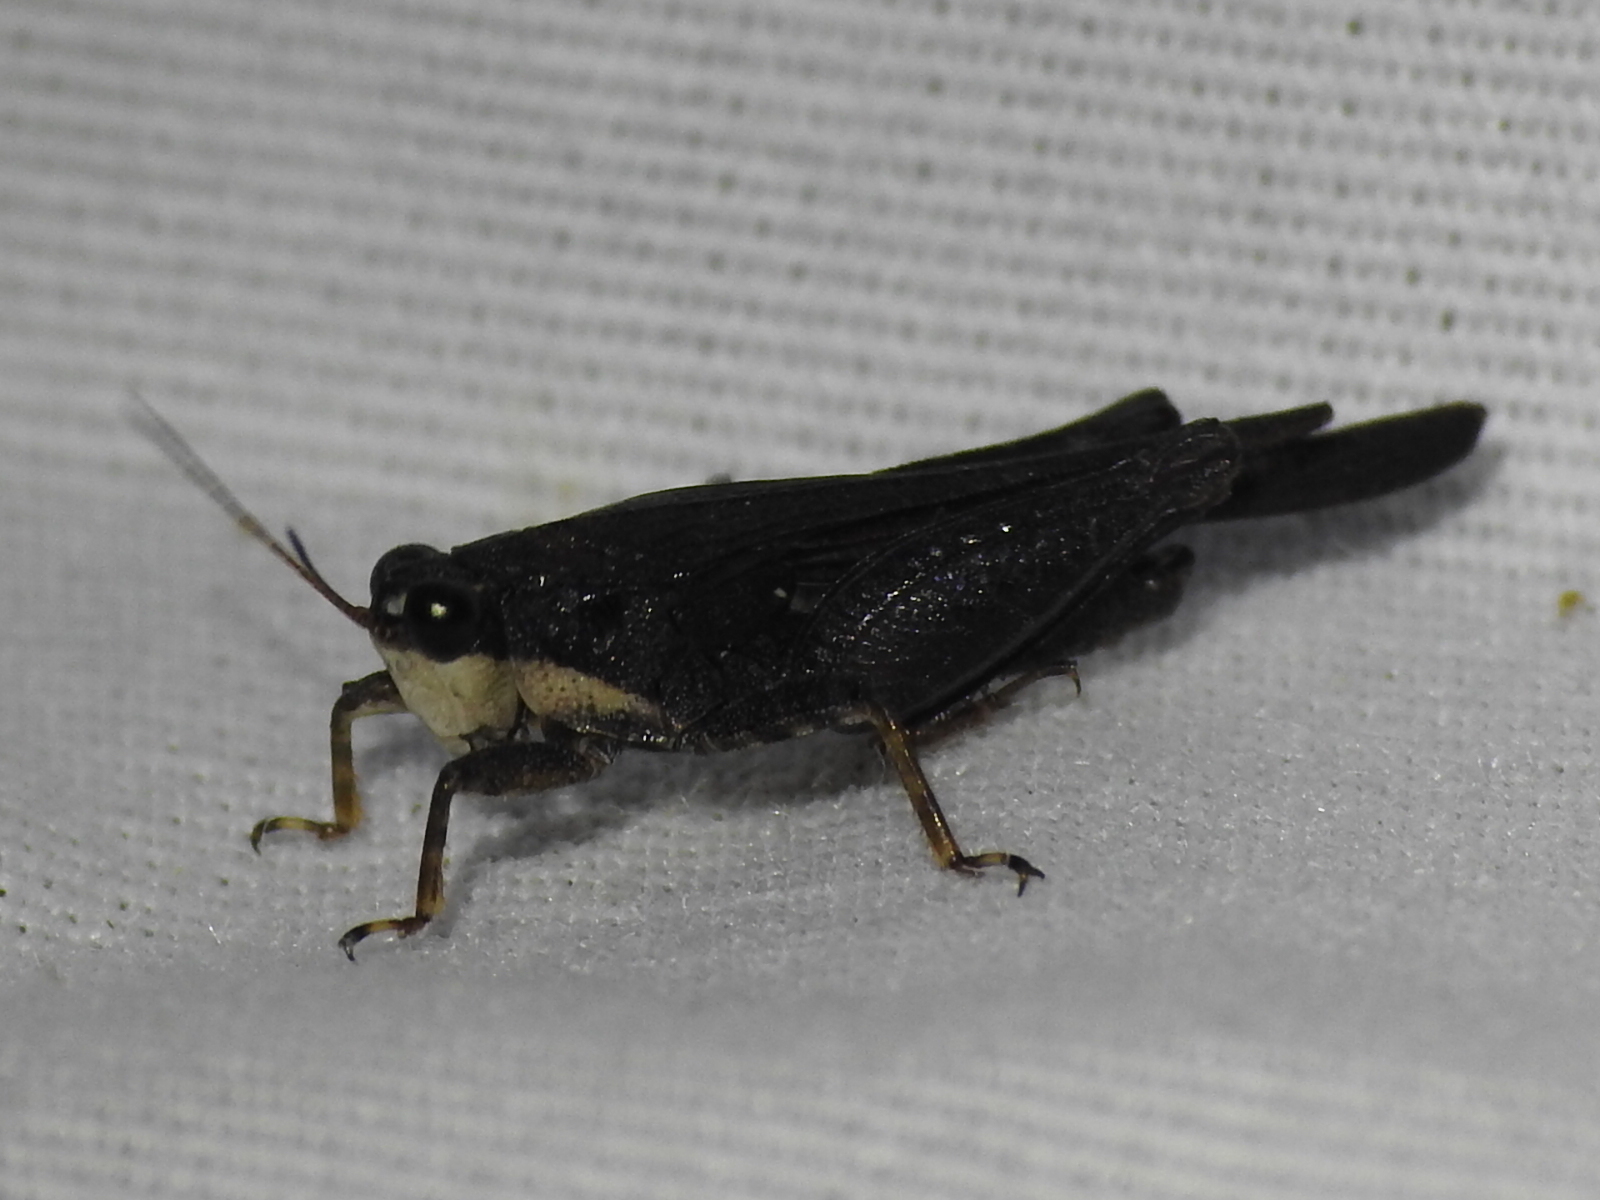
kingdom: Animalia
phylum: Arthropoda
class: Insecta
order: Orthoptera
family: Tetrigidae
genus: Tettigidea
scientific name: Tettigidea laterale
